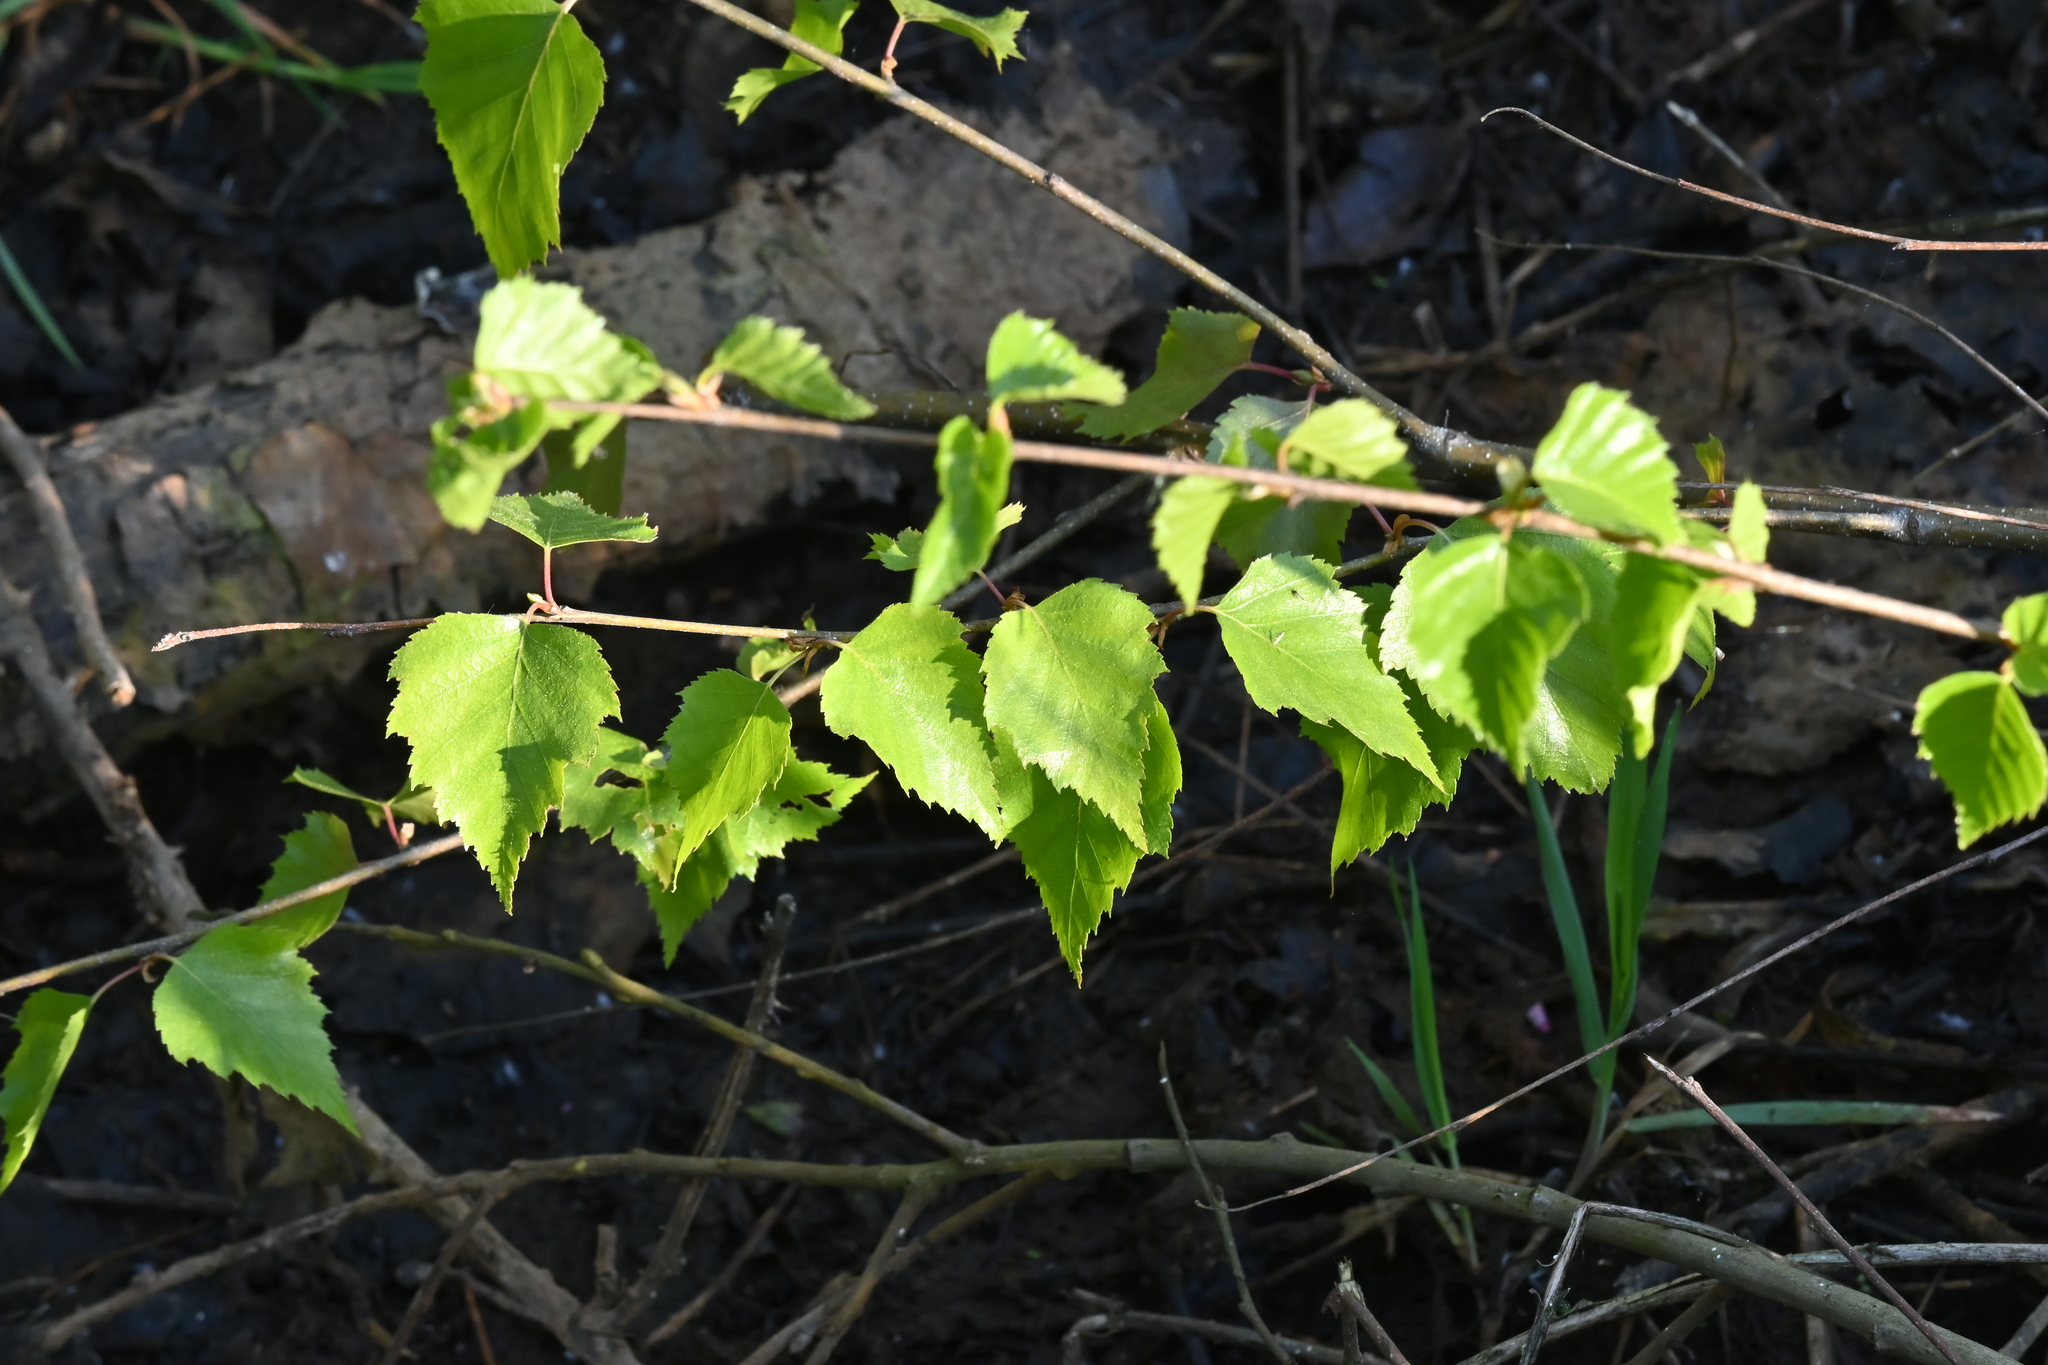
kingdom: Plantae
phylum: Tracheophyta
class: Magnoliopsida
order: Fagales
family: Betulaceae
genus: Betula
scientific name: Betula pendula
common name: Silver birch
